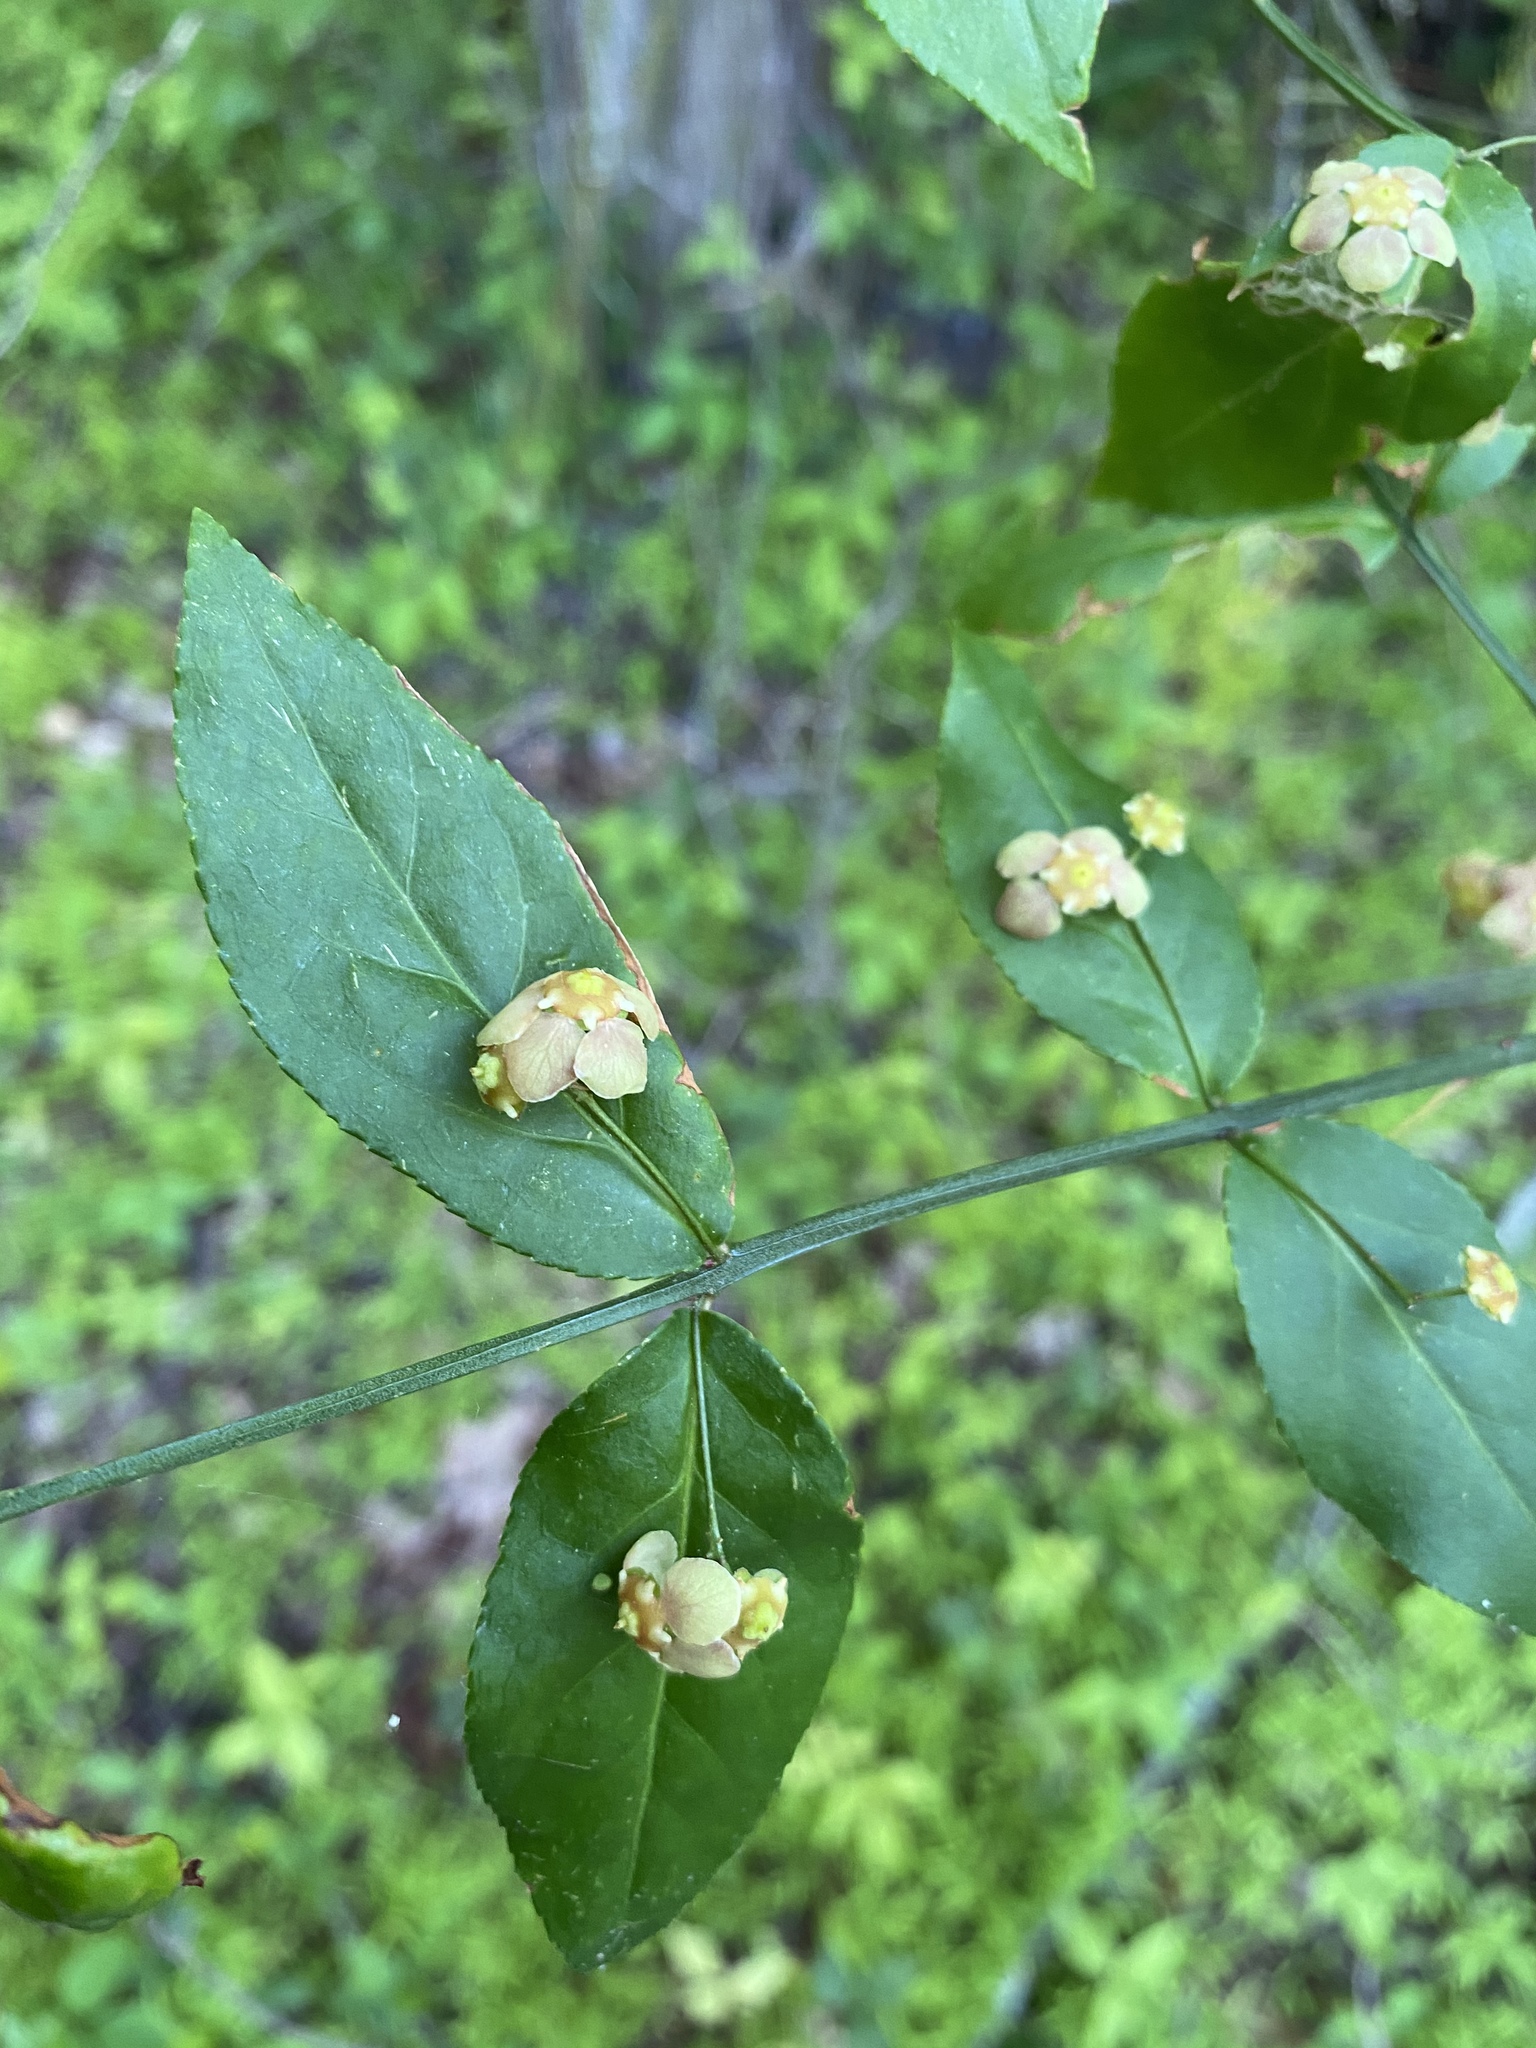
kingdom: Plantae
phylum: Tracheophyta
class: Magnoliopsida
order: Celastrales
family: Celastraceae
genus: Euonymus
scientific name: Euonymus americanus
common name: Bursting-heart
